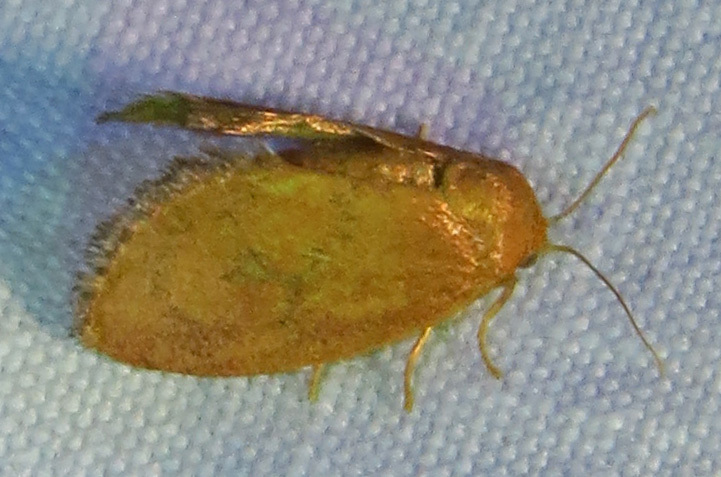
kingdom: Animalia
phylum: Arthropoda
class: Insecta
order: Lepidoptera
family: Limacodidae
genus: Heterogenea
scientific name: Heterogenea shurtleffi
